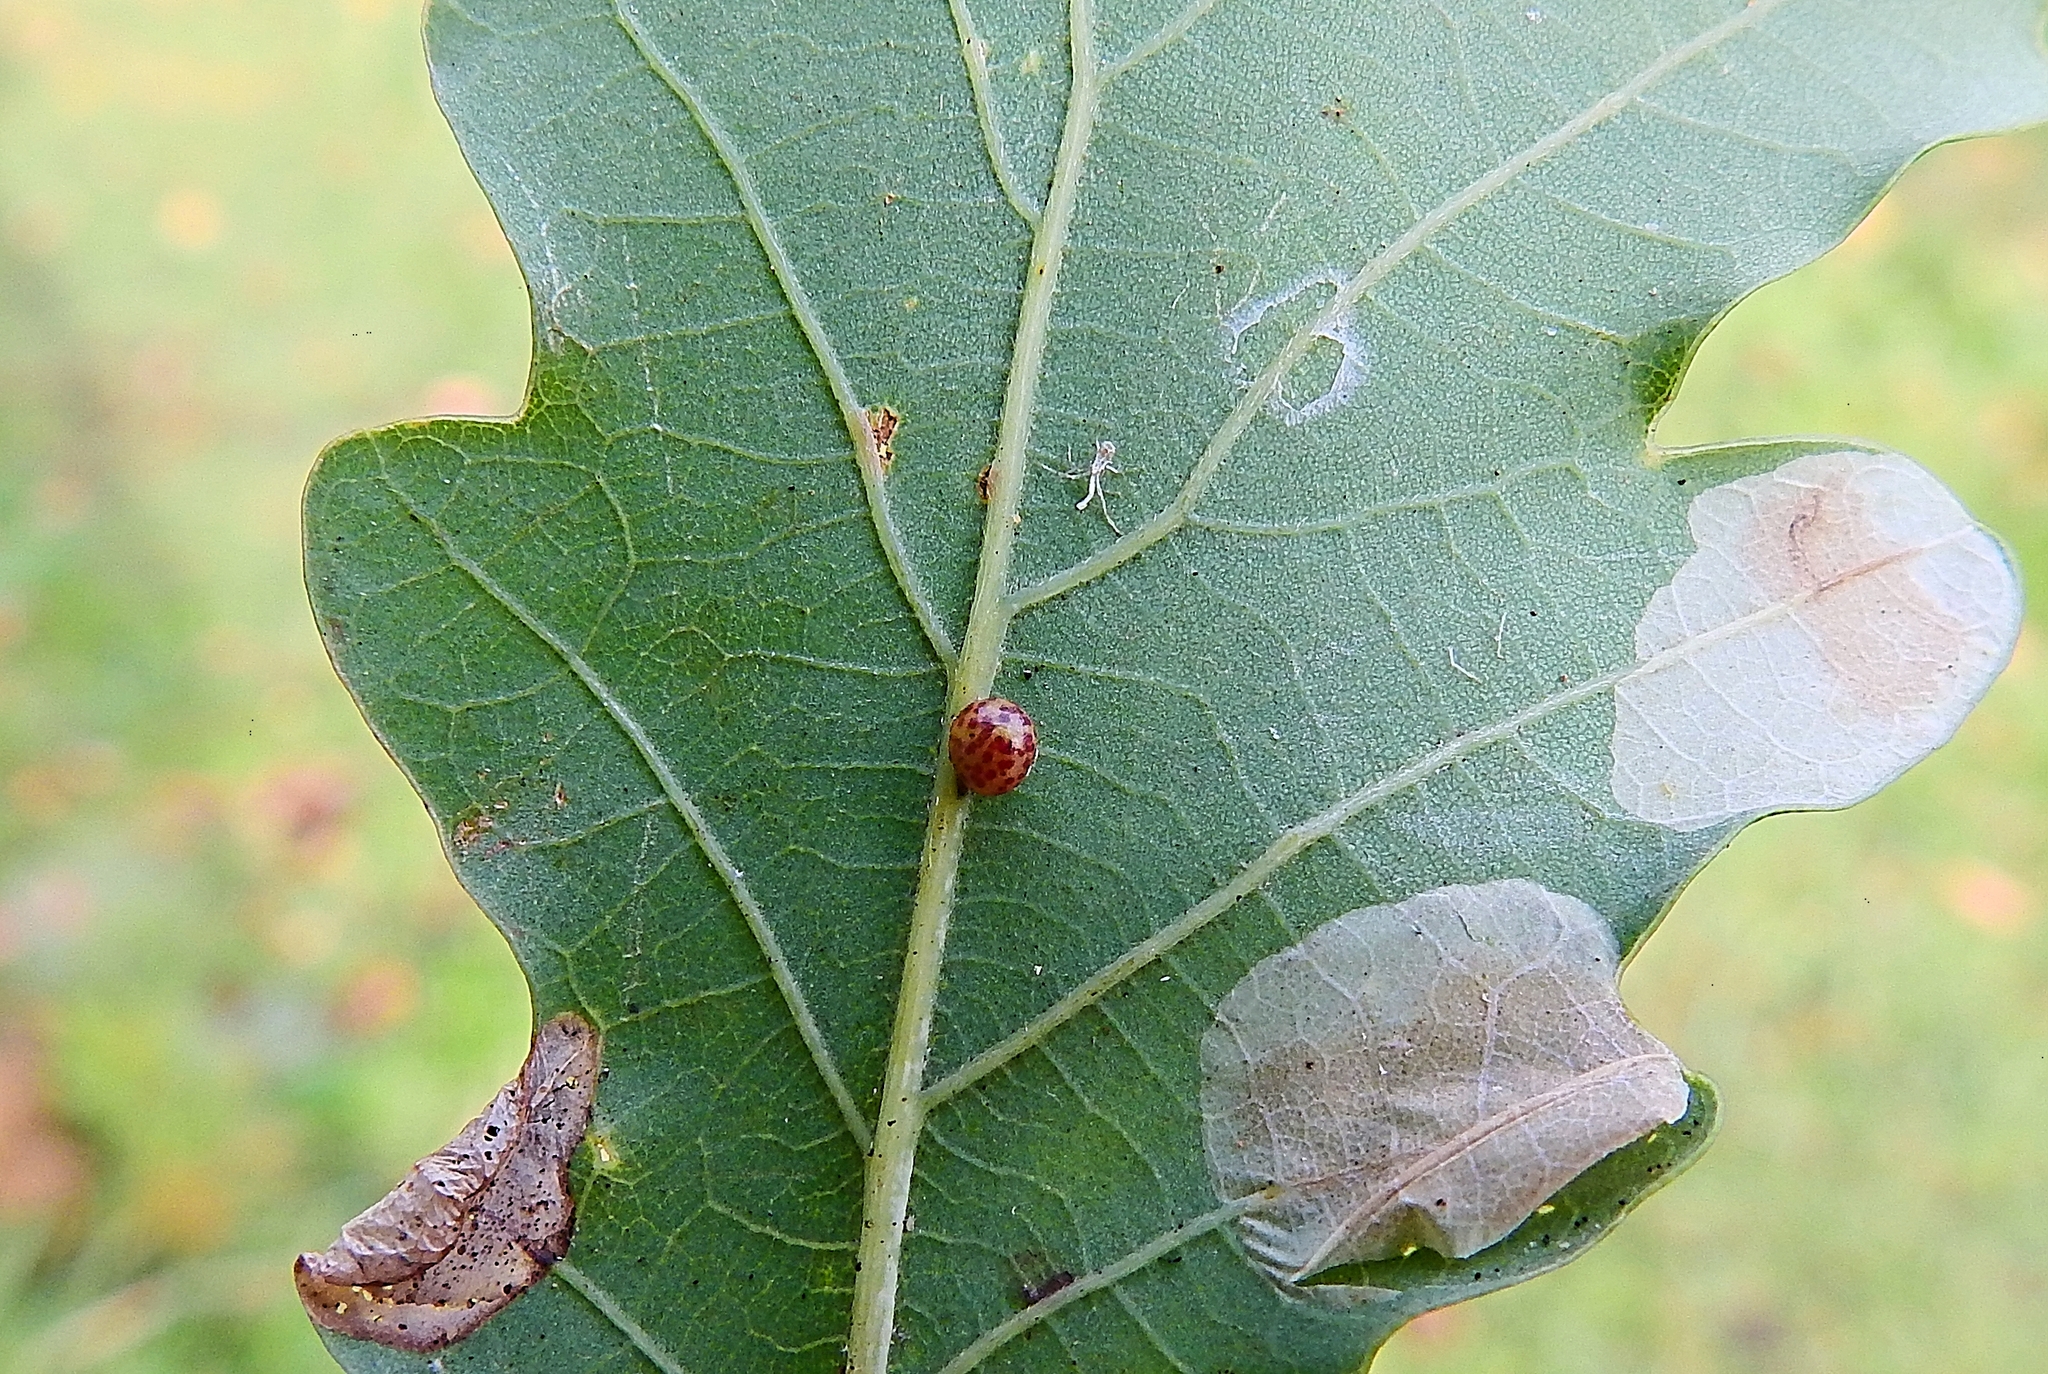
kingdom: Animalia
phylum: Arthropoda
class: Insecta
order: Hymenoptera
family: Cynipidae
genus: Neuroterus
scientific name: Neuroterus anthracinus
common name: Oyster gall
